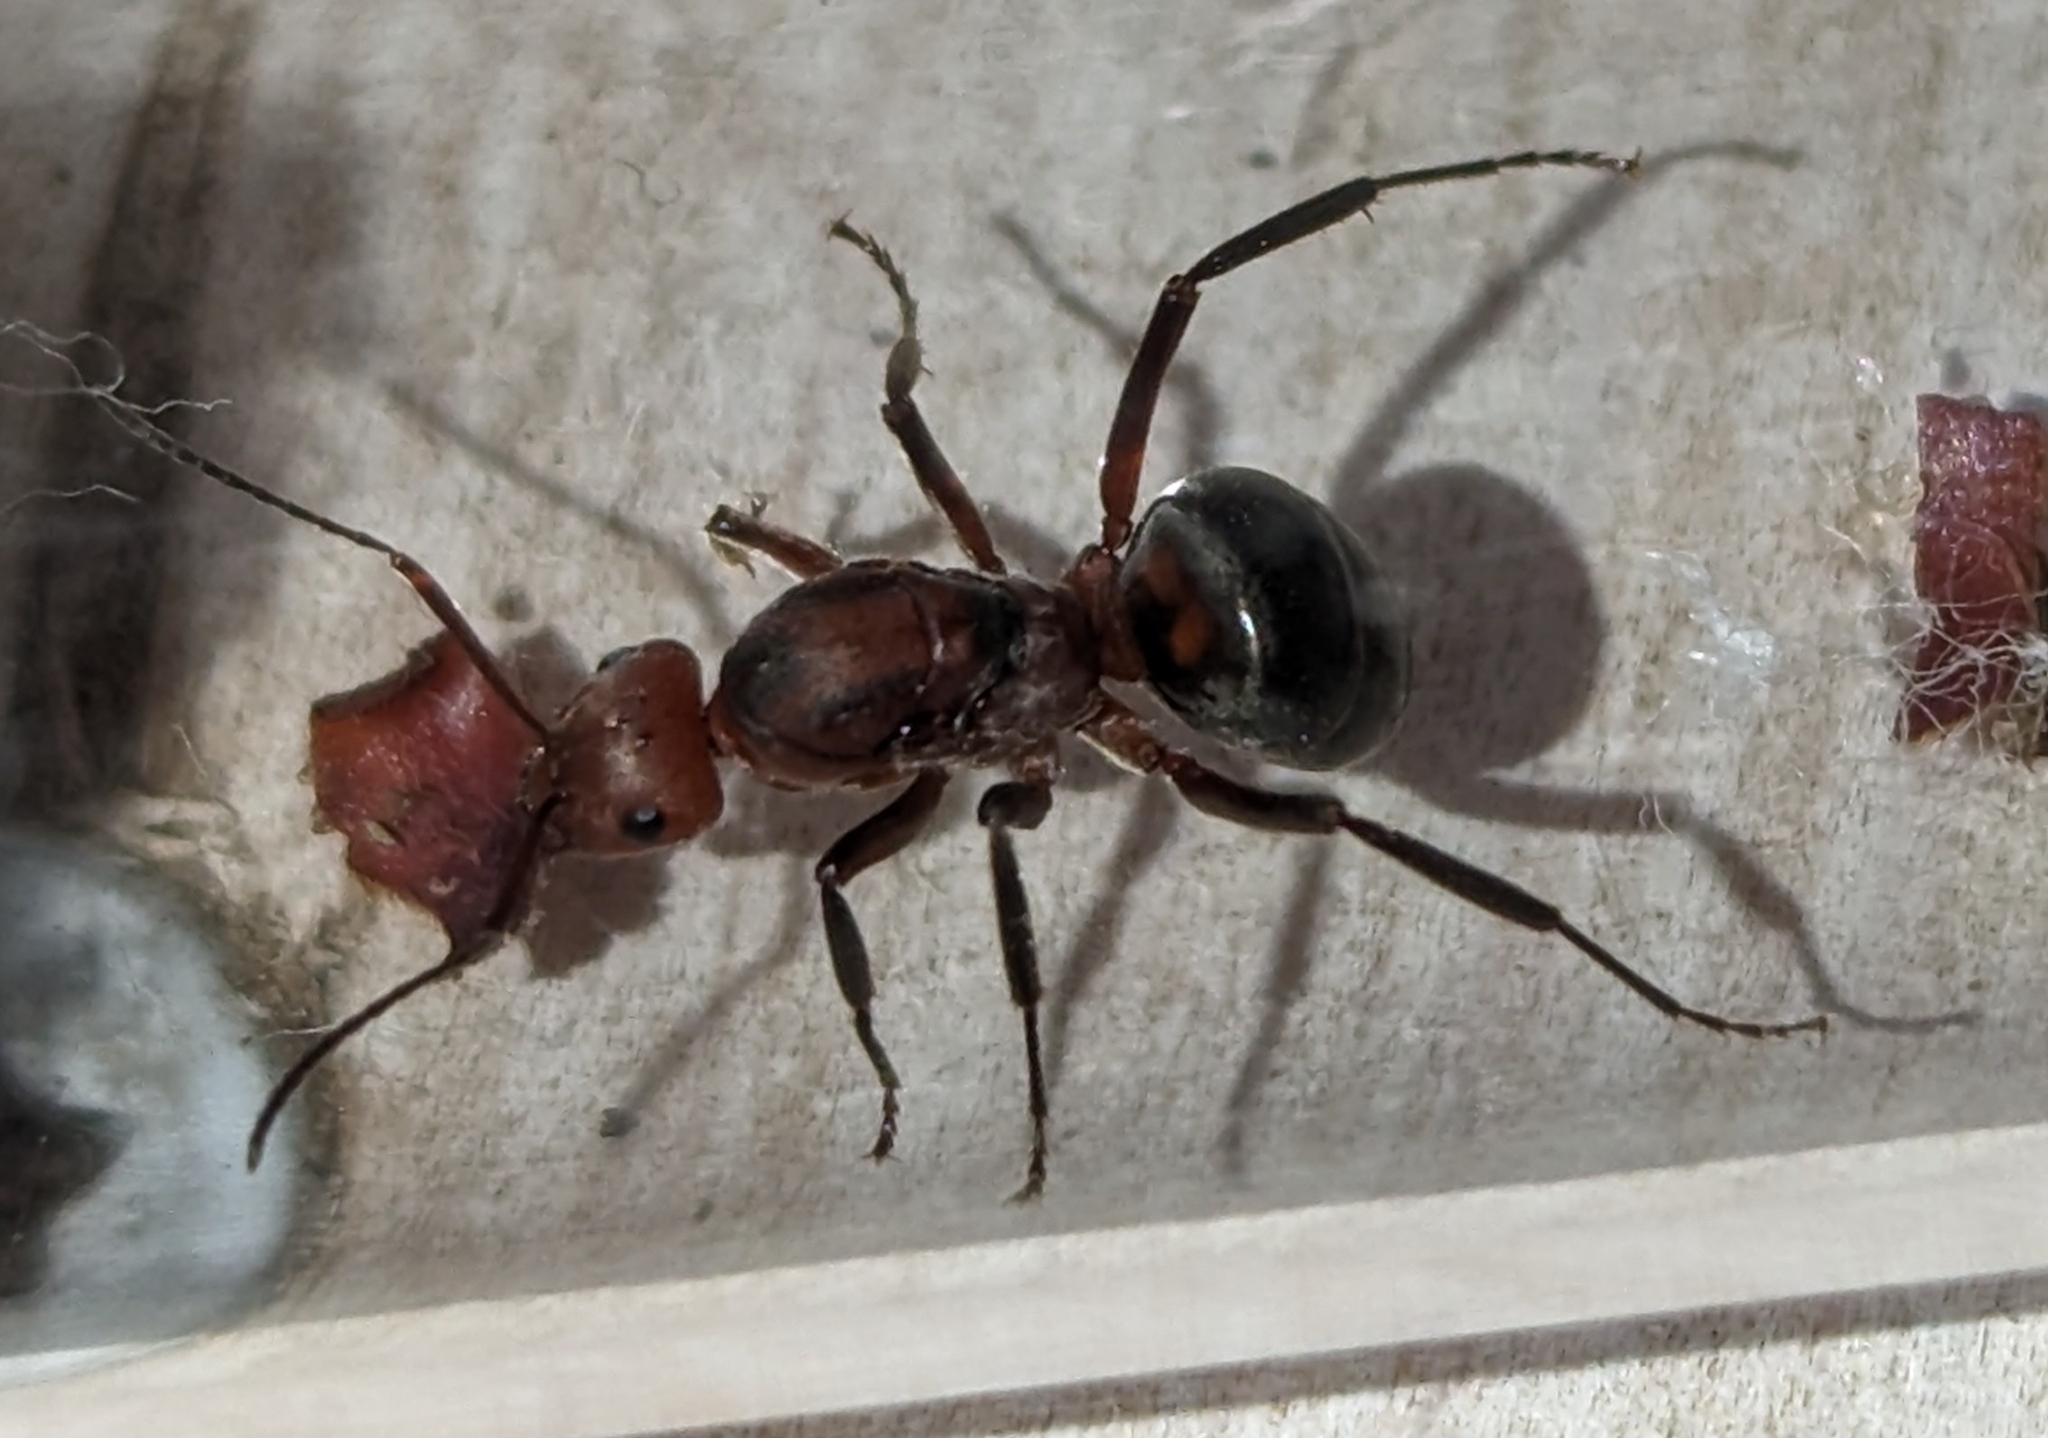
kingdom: Animalia
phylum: Arthropoda
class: Insecta
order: Hymenoptera
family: Formicidae
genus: Formica
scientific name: Formica obscuriventris
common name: Northern red wood ant
